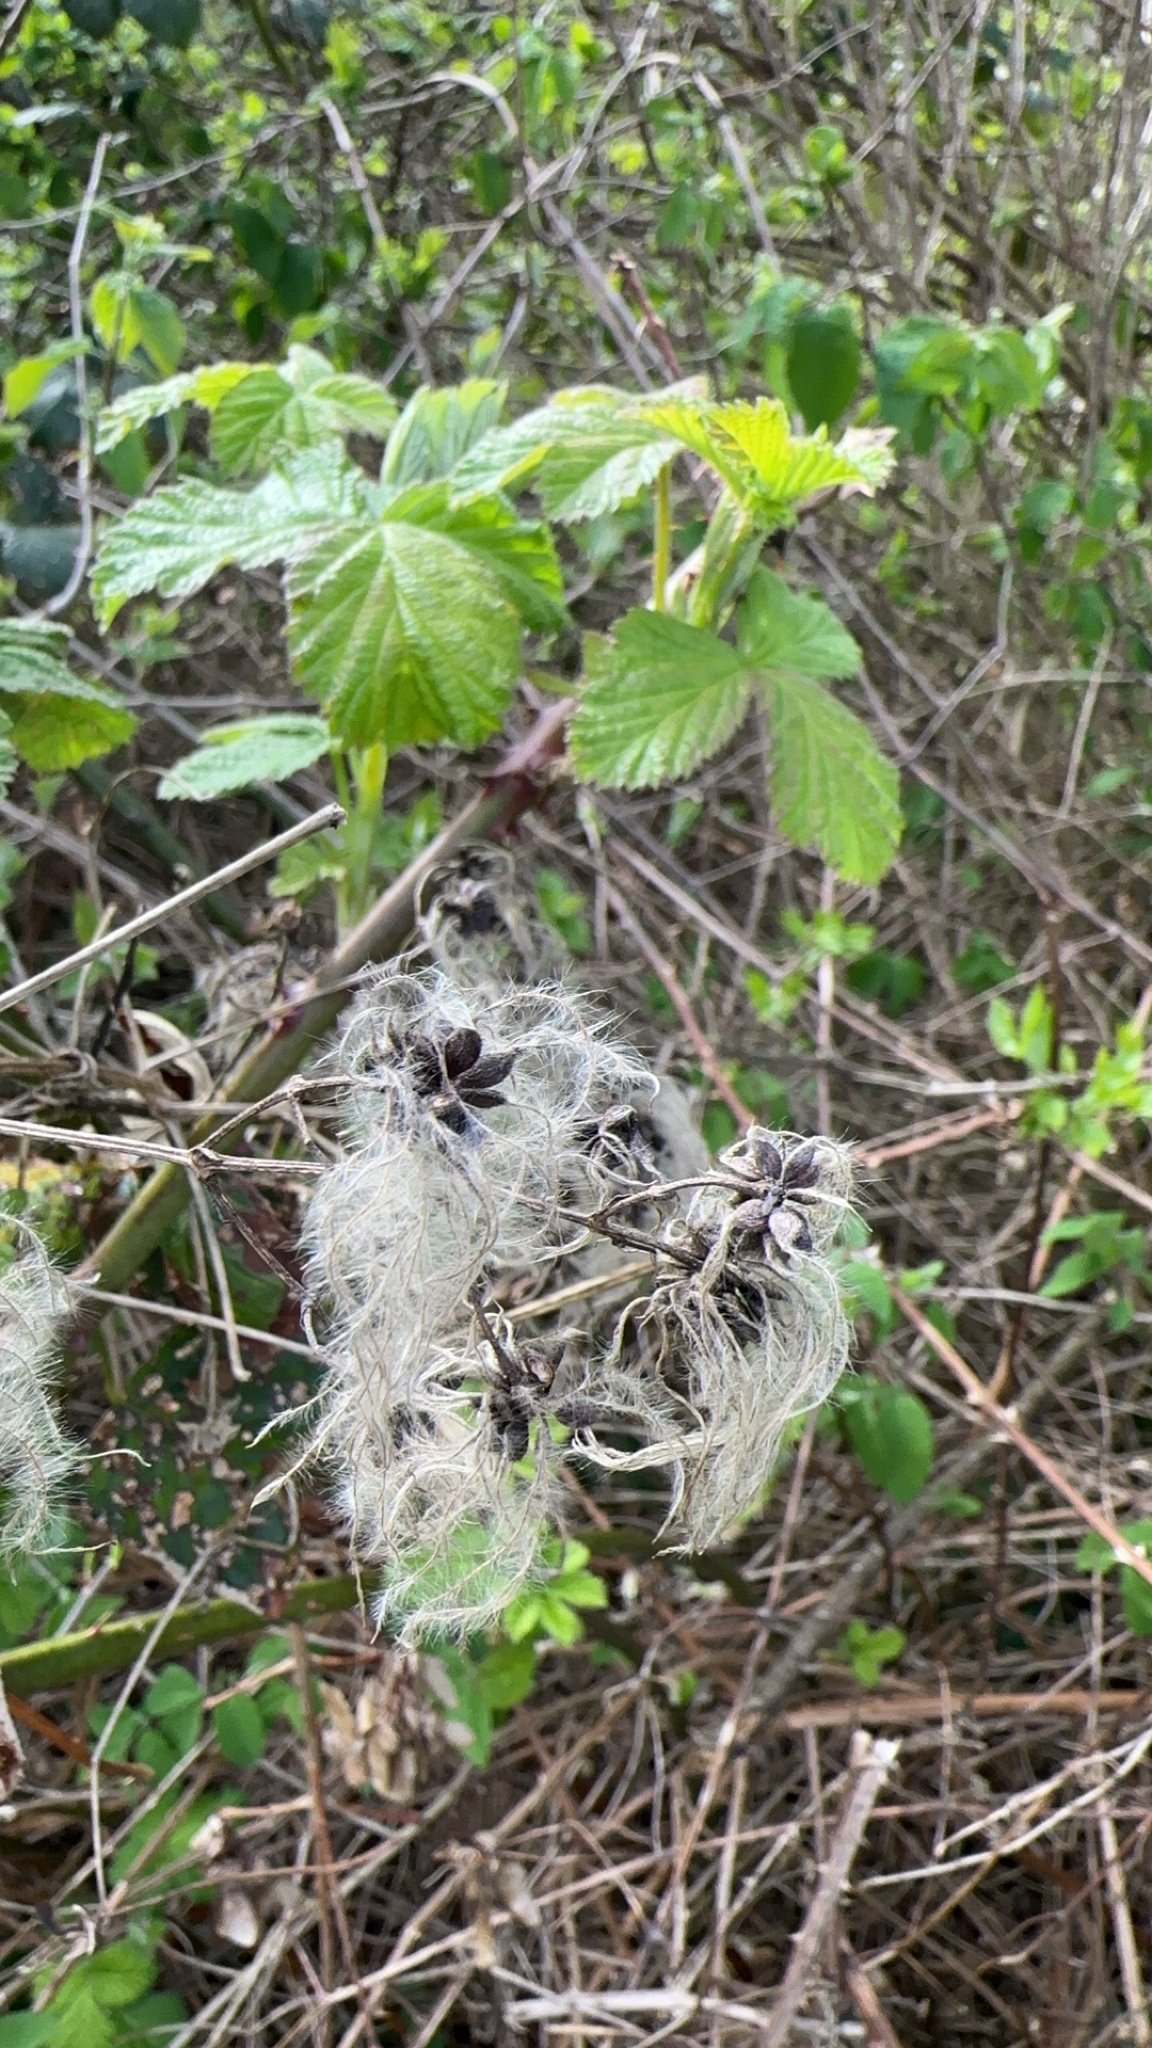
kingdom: Plantae
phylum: Tracheophyta
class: Magnoliopsida
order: Ranunculales
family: Ranunculaceae
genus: Clematis
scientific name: Clematis vitalba
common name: Evergreen clematis
